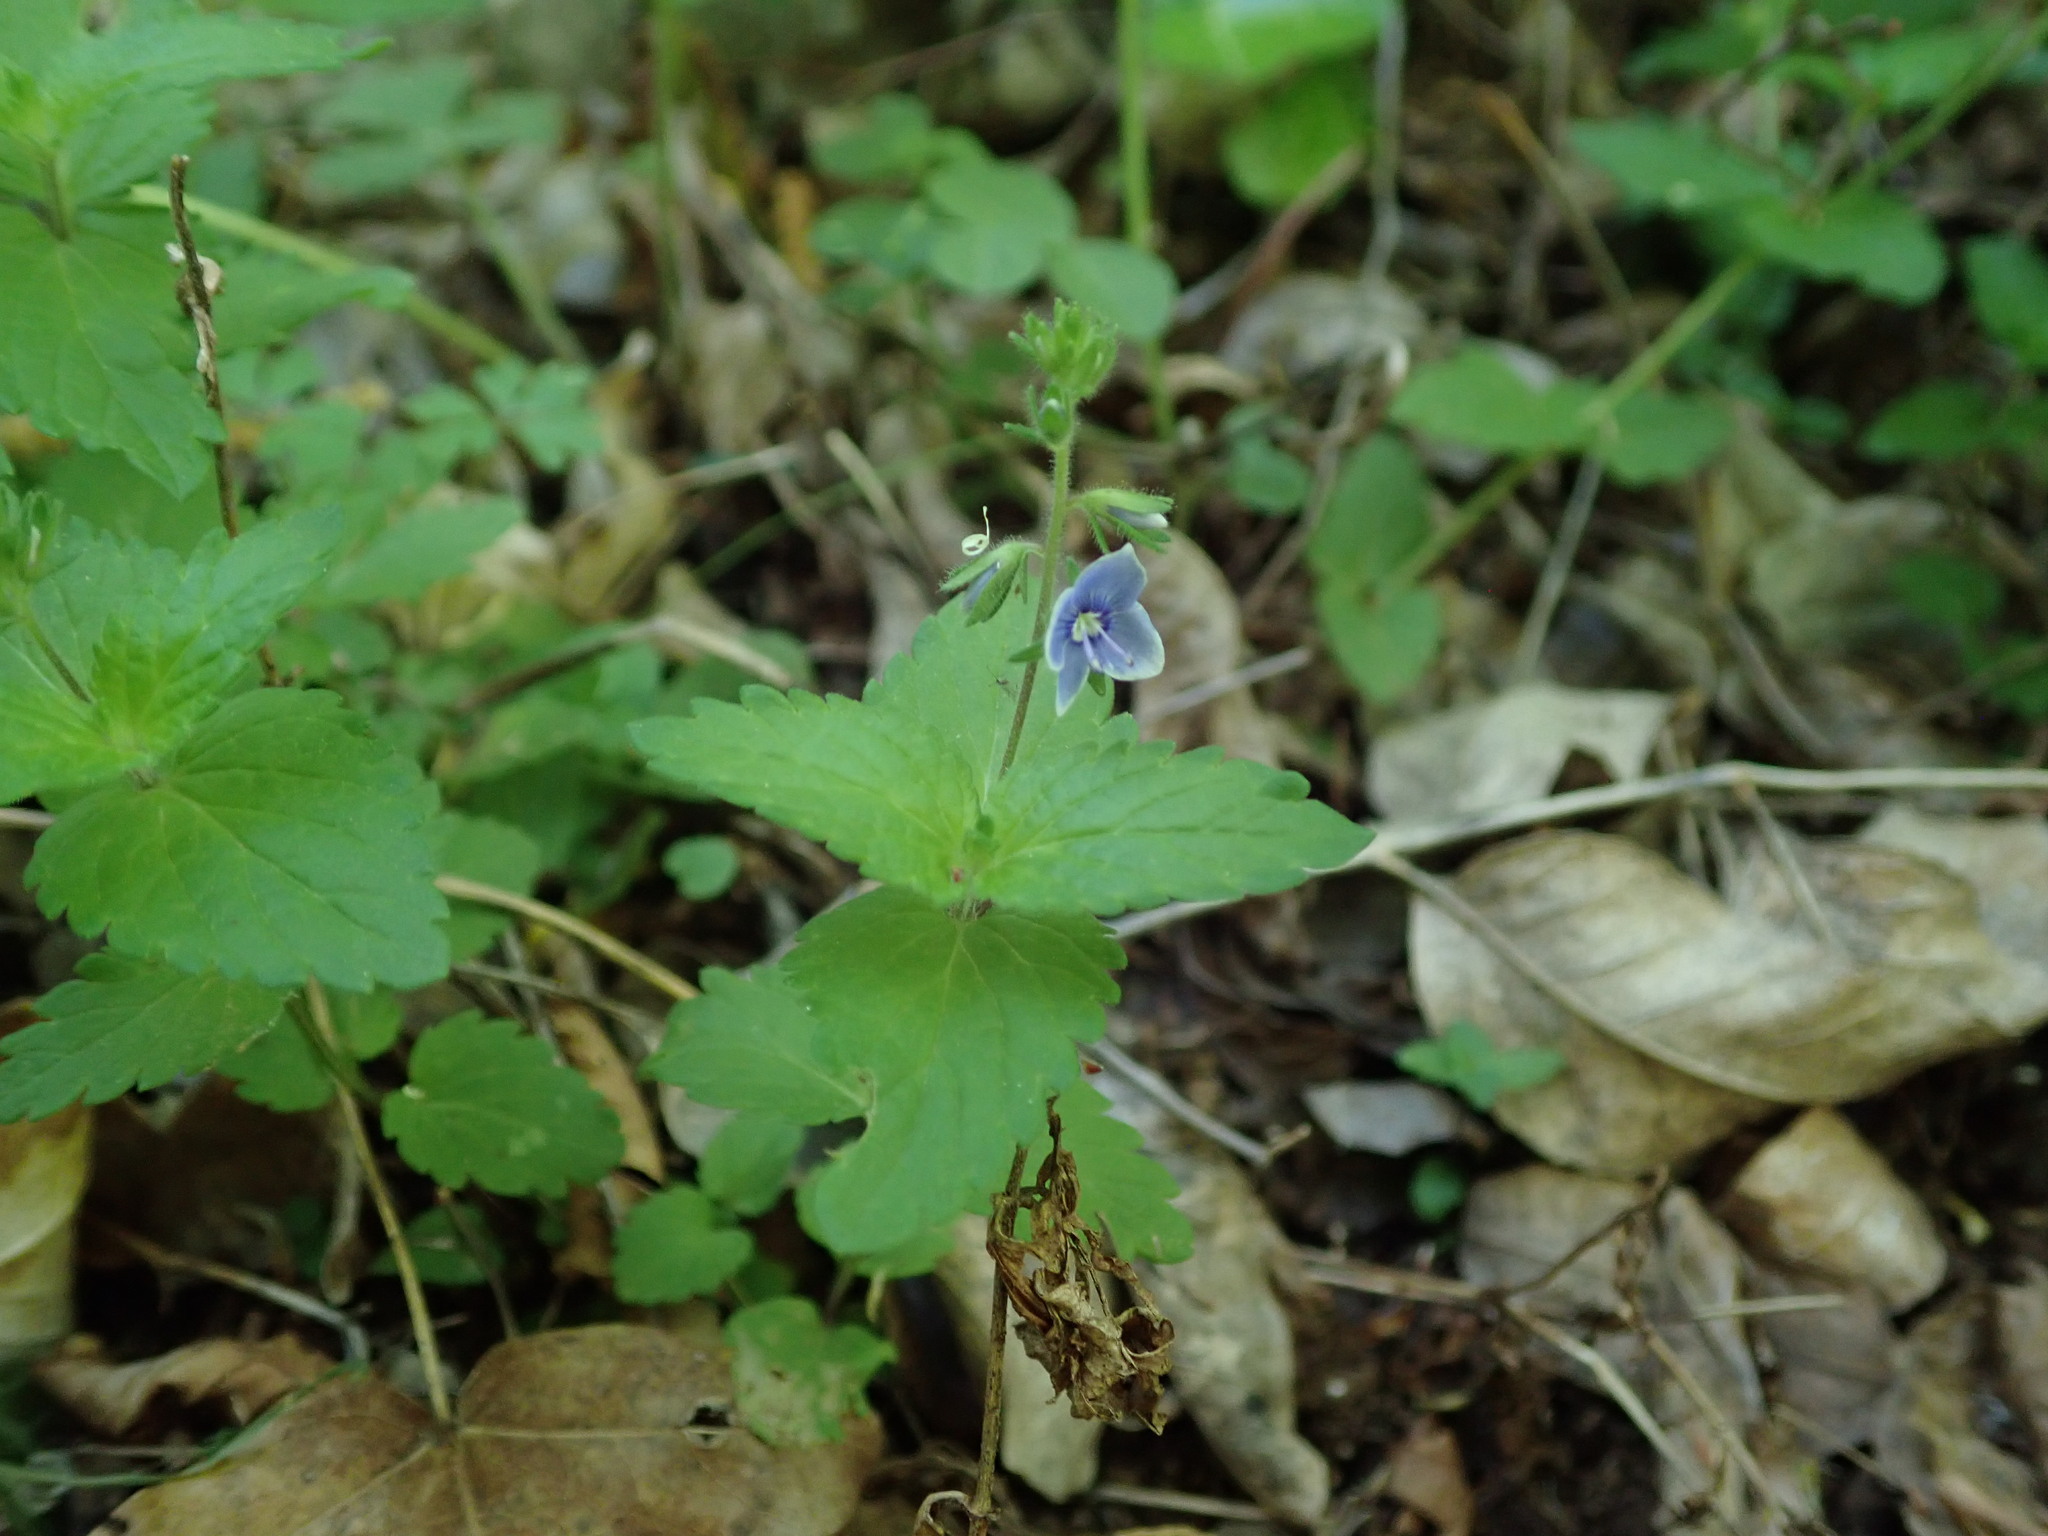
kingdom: Plantae
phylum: Tracheophyta
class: Magnoliopsida
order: Lamiales
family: Plantaginaceae
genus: Veronica
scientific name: Veronica chamaedrys
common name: Germander speedwell
